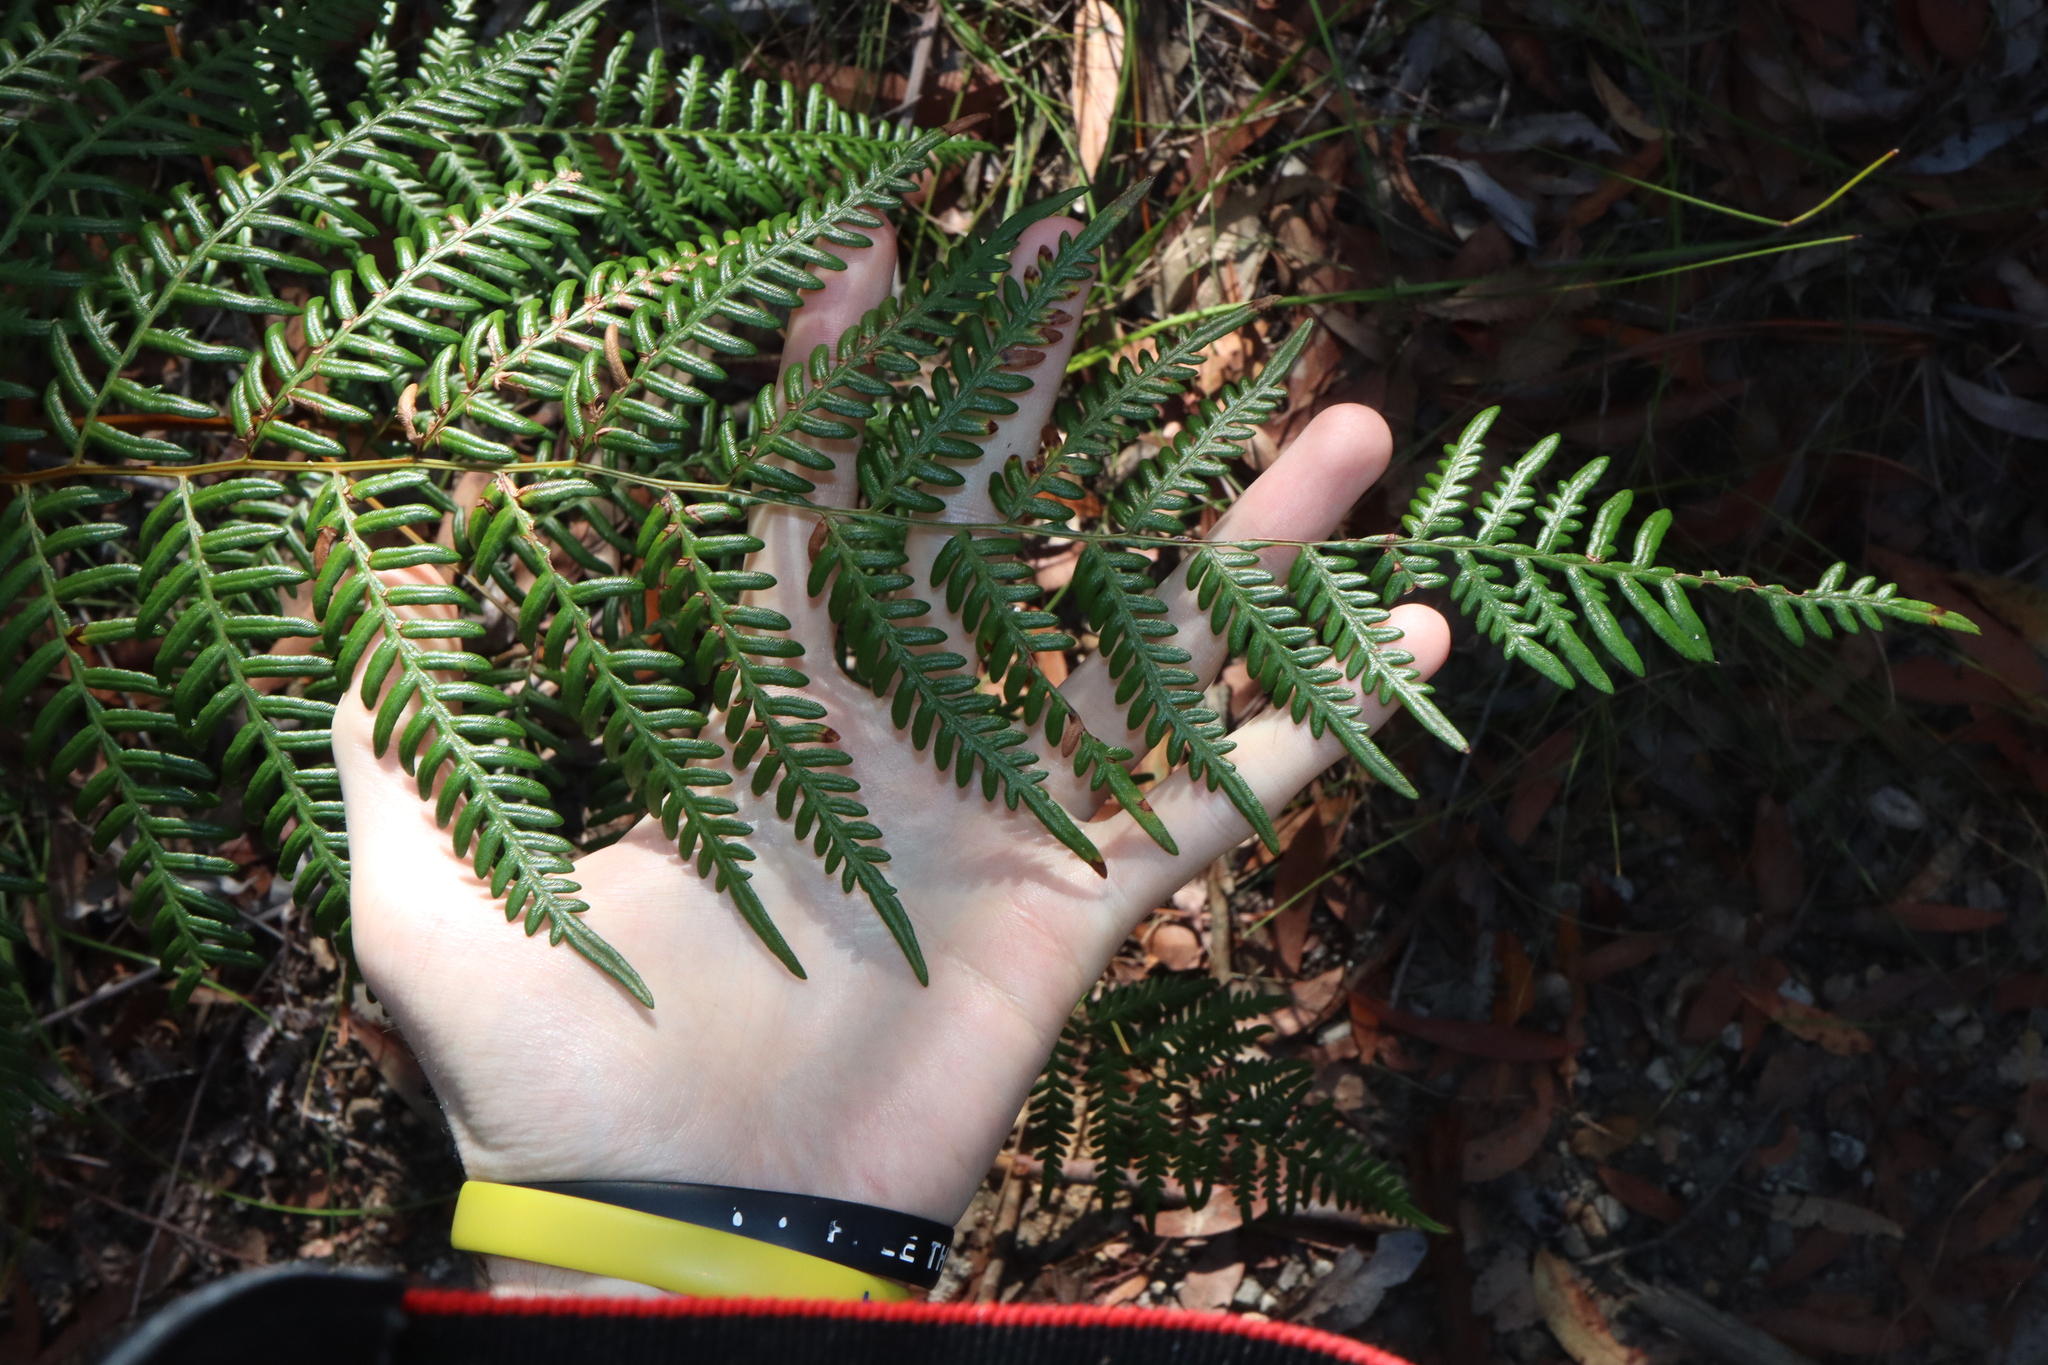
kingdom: Plantae
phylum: Tracheophyta
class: Polypodiopsida
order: Polypodiales
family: Dennstaedtiaceae
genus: Pteridium
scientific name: Pteridium esculentum
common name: Bracken fern
